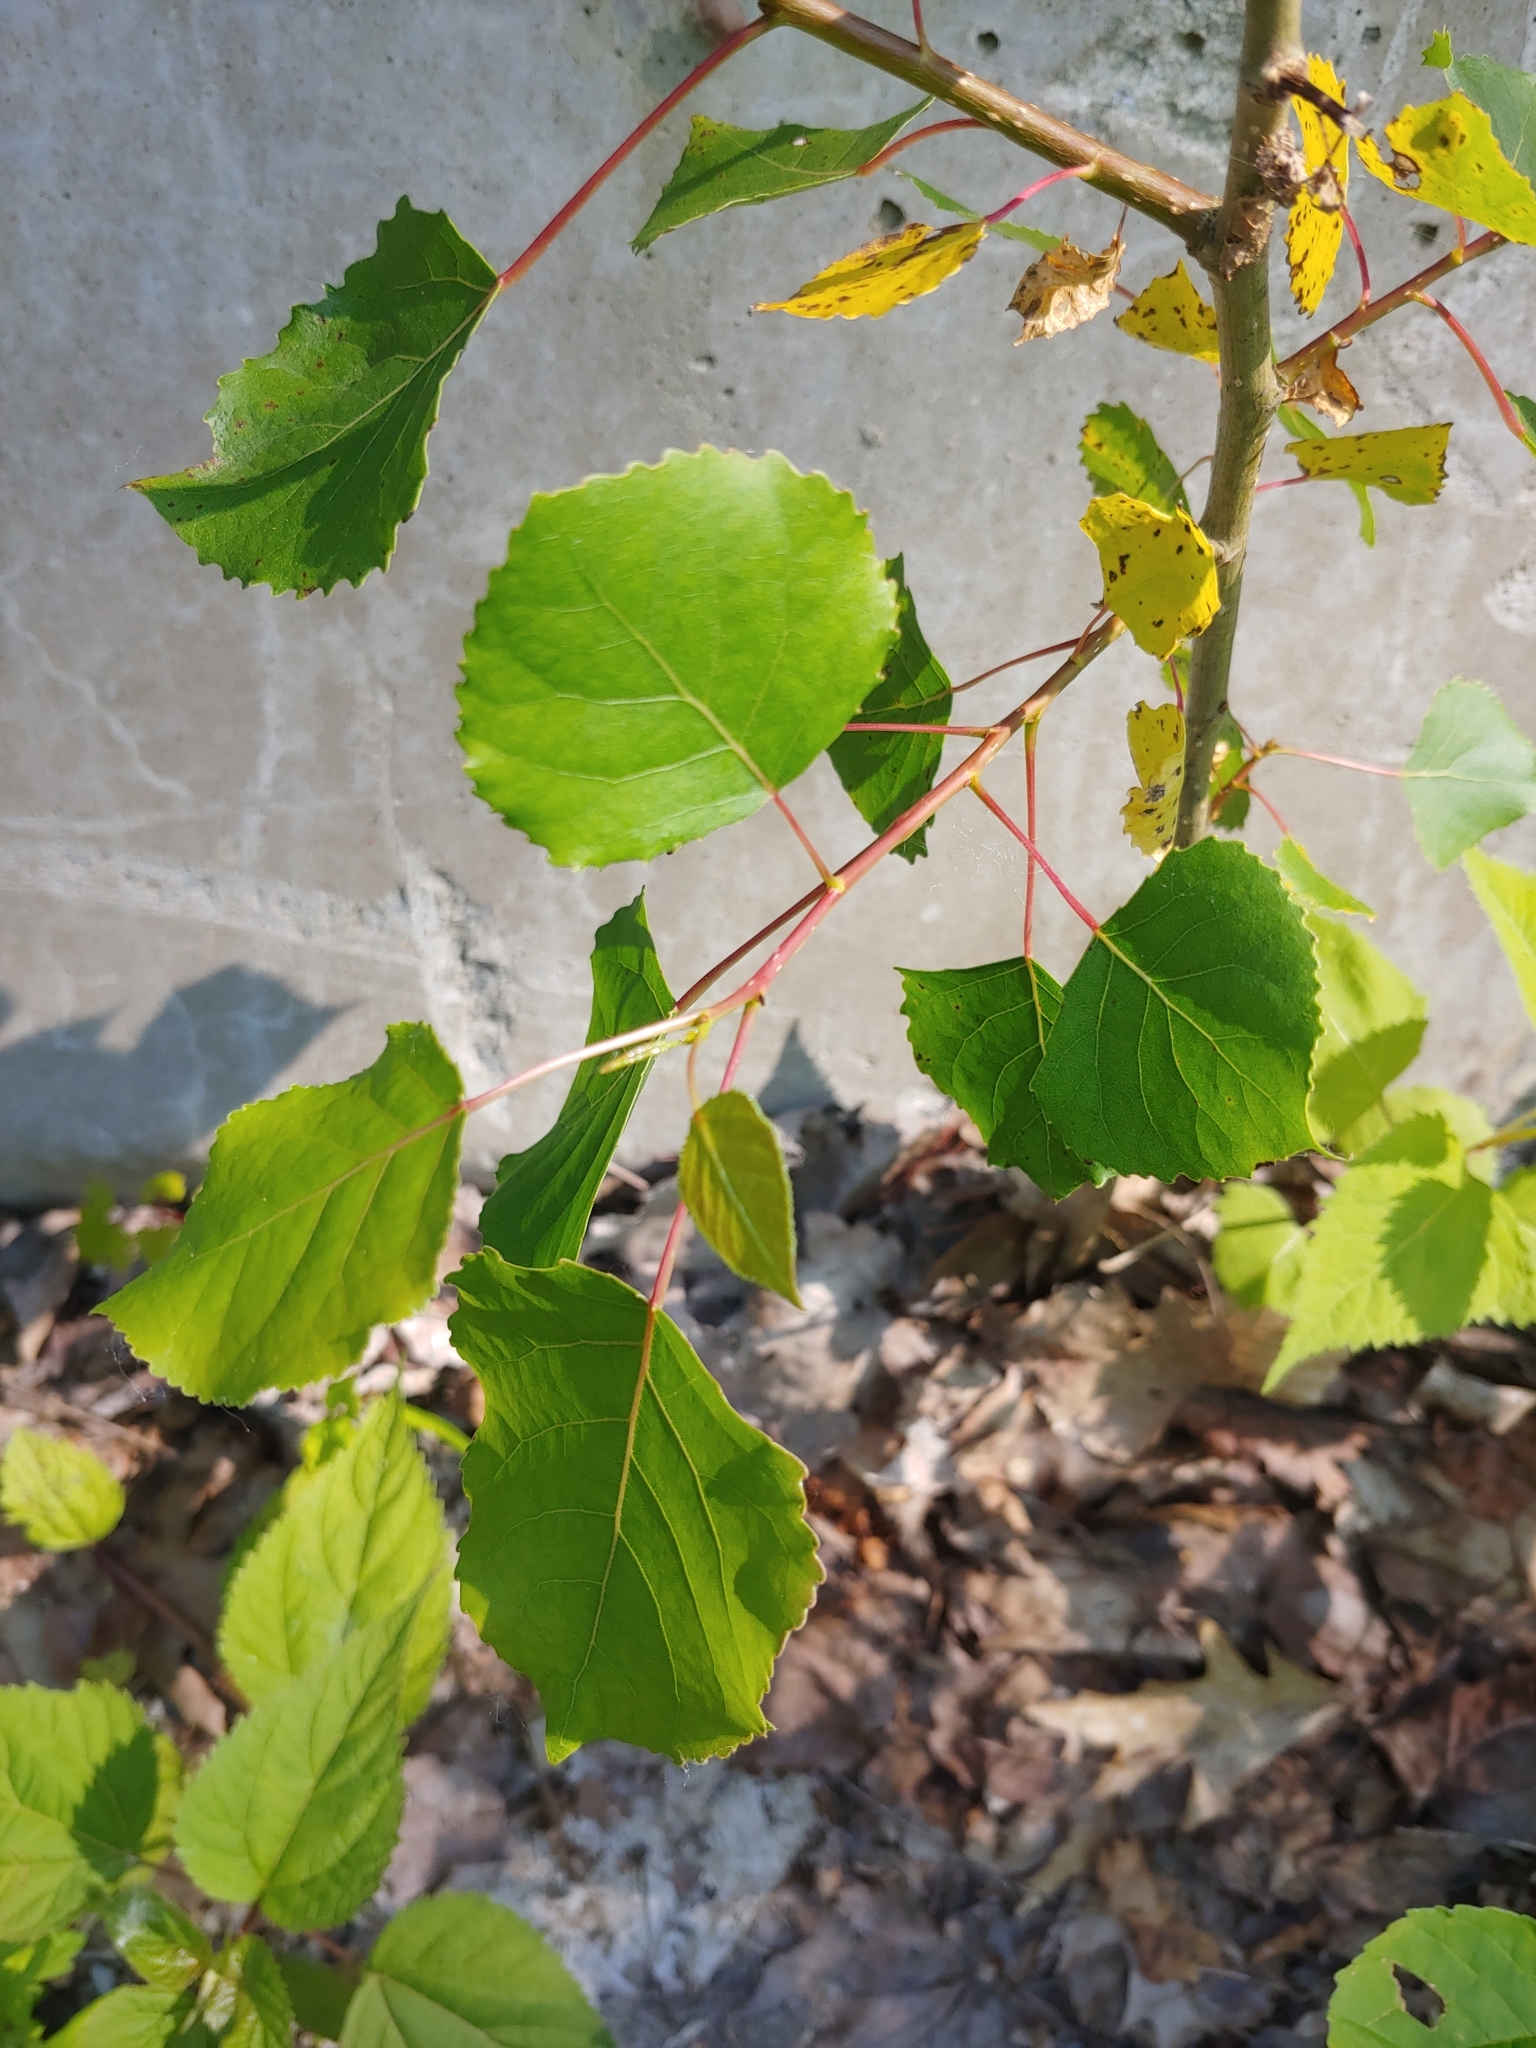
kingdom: Plantae
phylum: Tracheophyta
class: Magnoliopsida
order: Malpighiales
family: Salicaceae
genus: Populus
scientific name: Populus deltoides
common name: Eastern cottonwood
